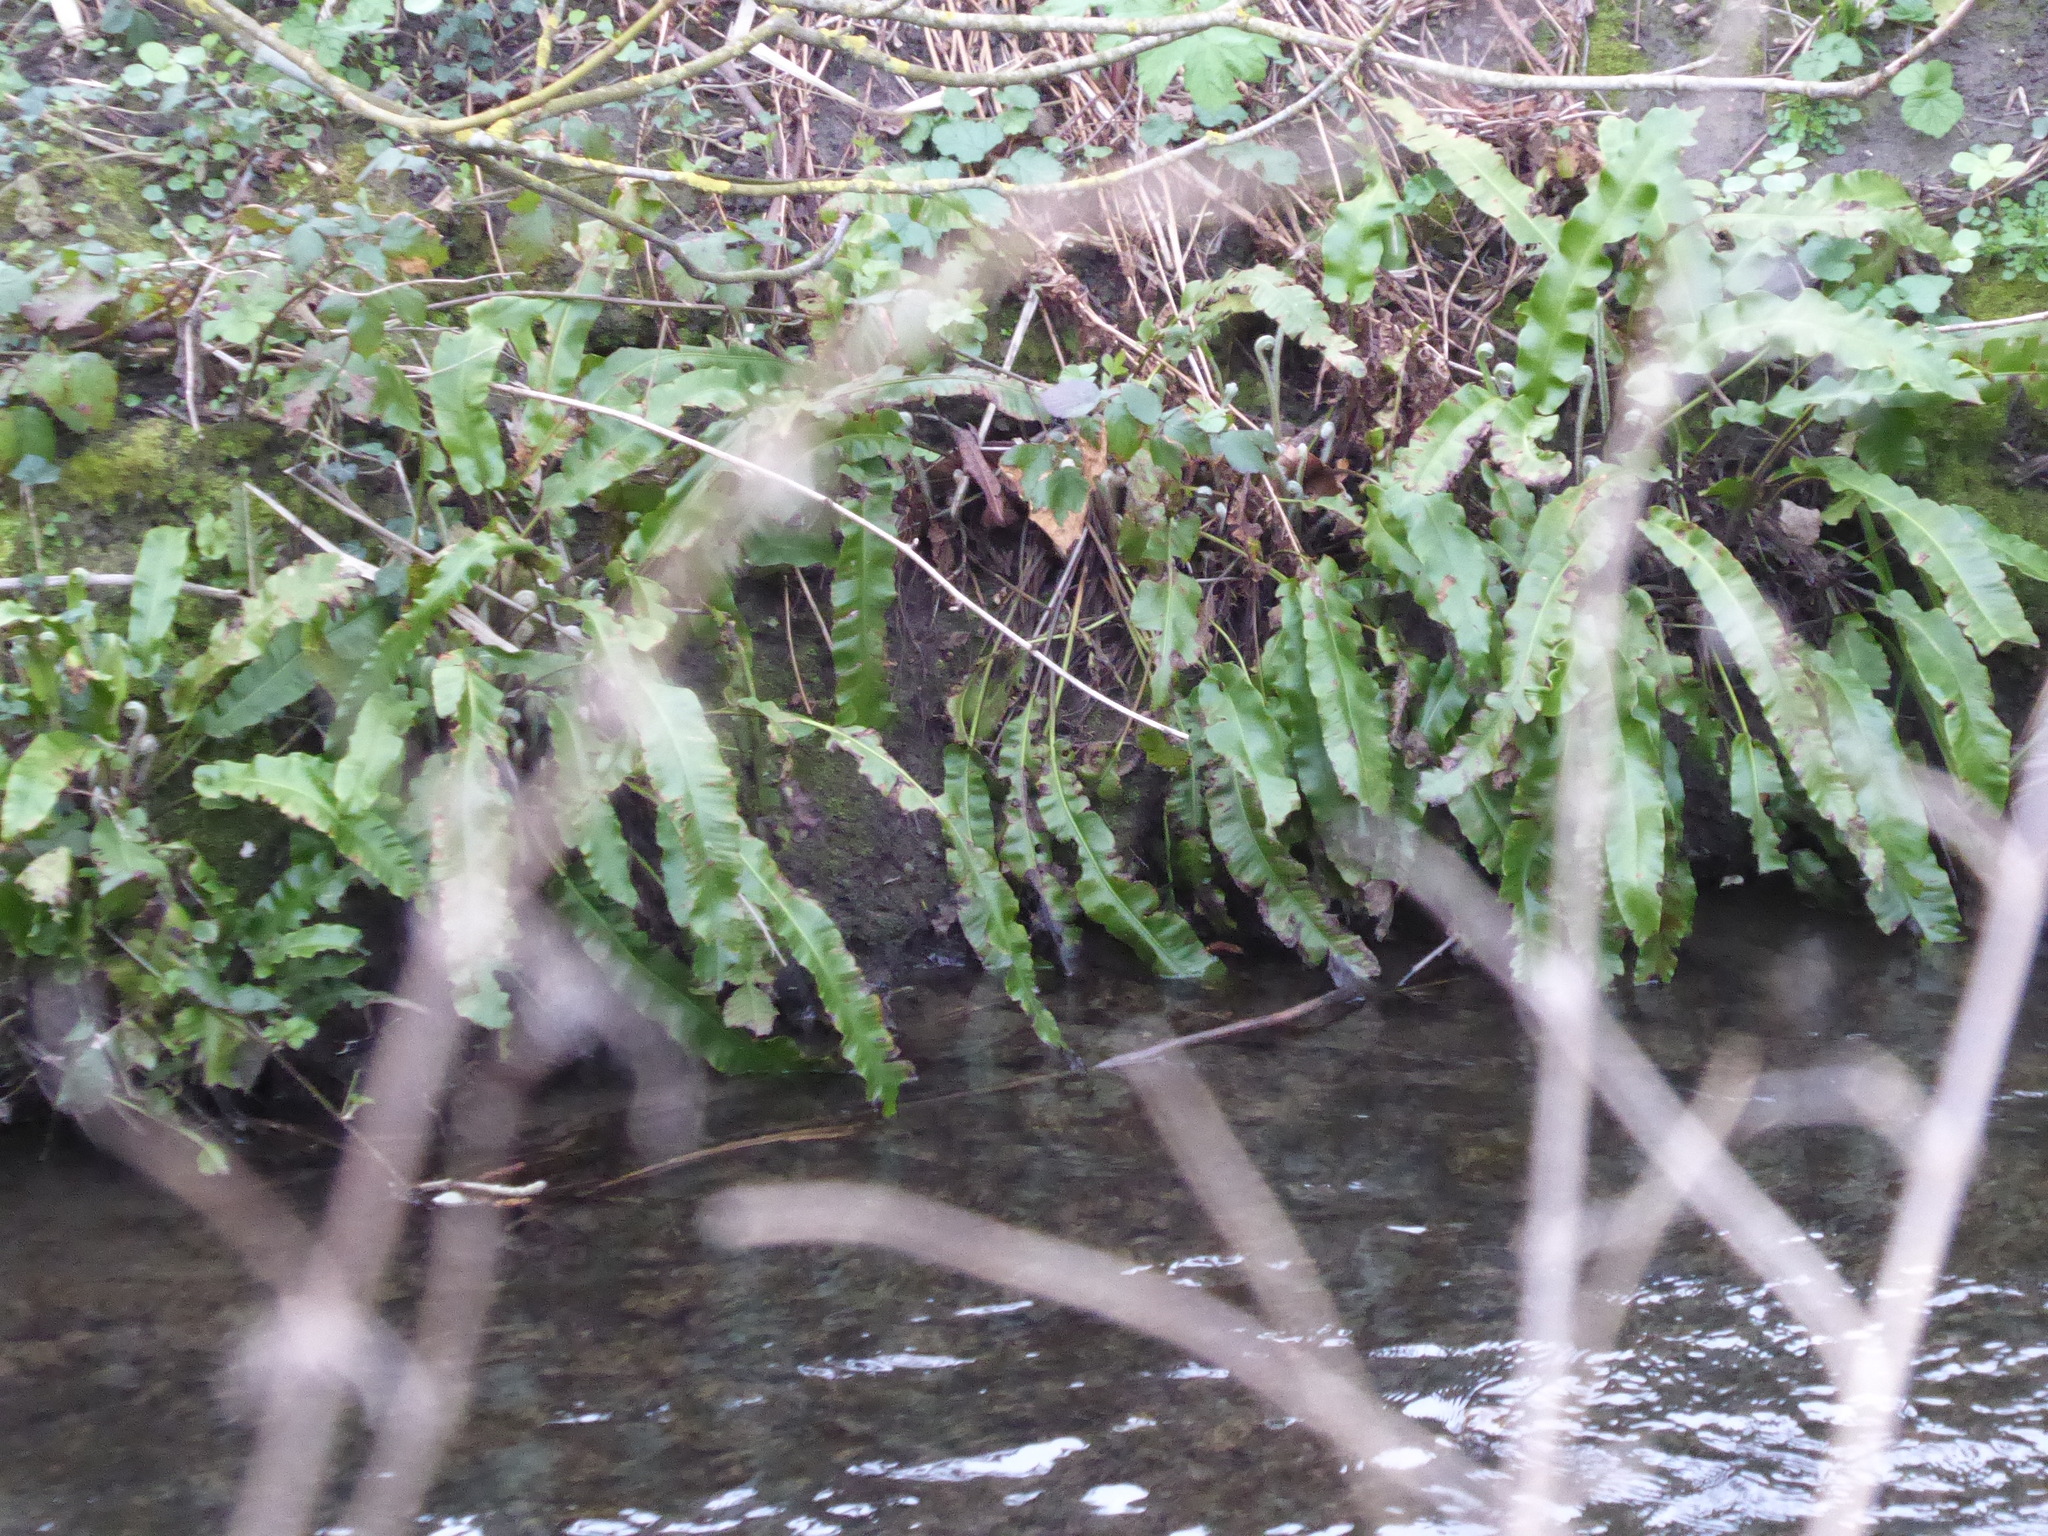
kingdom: Plantae
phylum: Tracheophyta
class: Polypodiopsida
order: Polypodiales
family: Aspleniaceae
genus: Asplenium
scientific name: Asplenium scolopendrium
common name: Hart's-tongue fern
